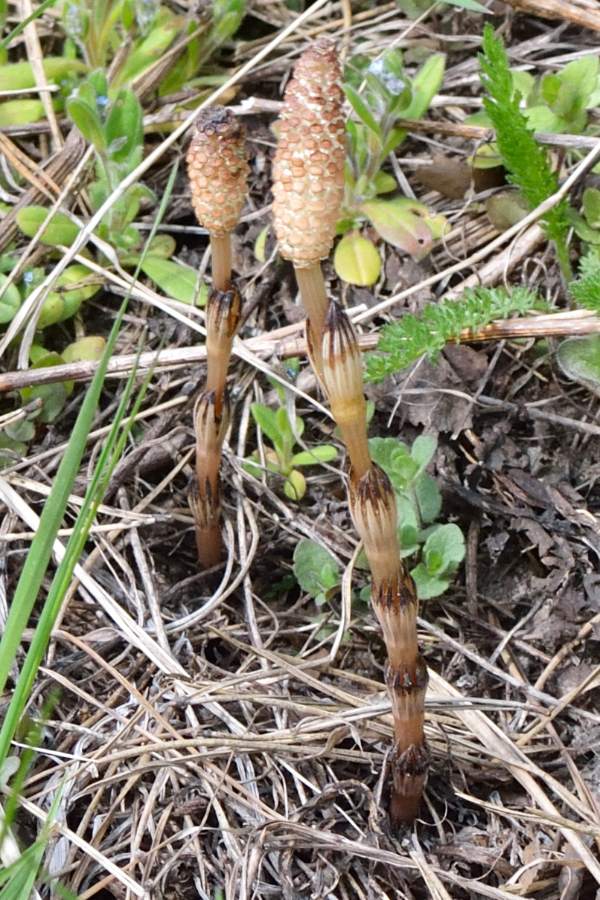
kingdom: Plantae
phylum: Tracheophyta
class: Polypodiopsida
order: Equisetales
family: Equisetaceae
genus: Equisetum
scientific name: Equisetum arvense
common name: Field horsetail
